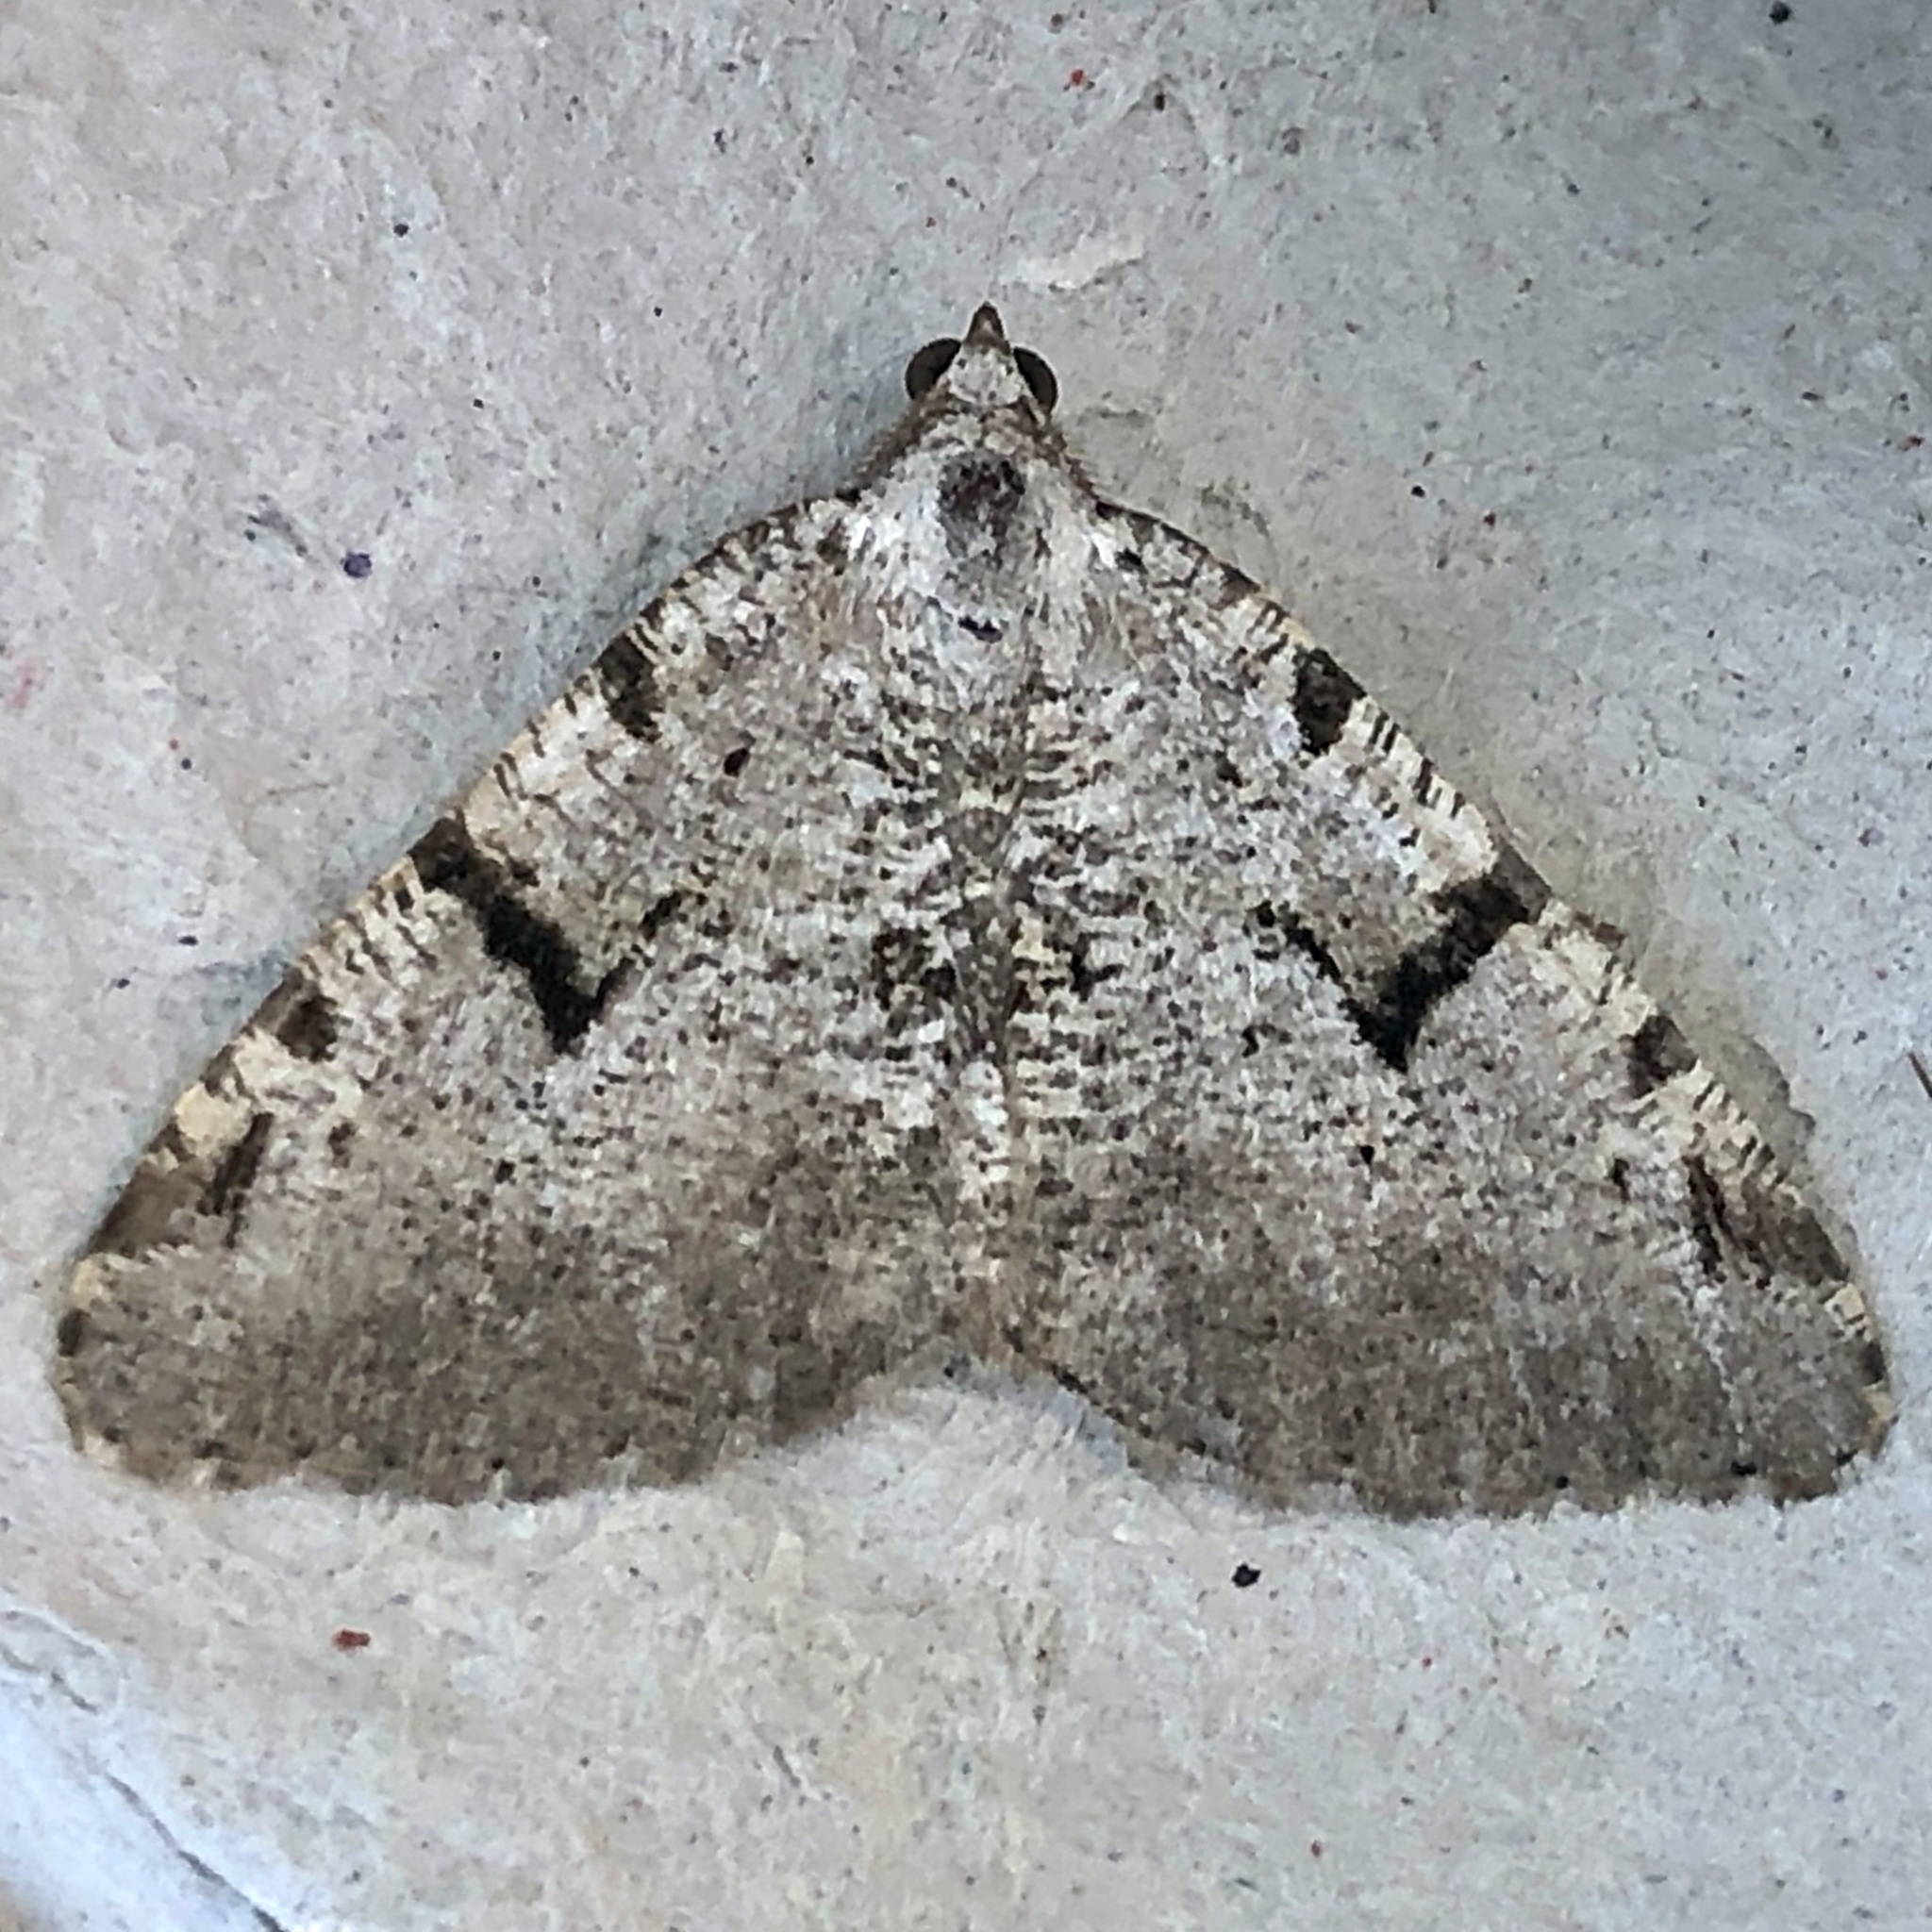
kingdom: Animalia
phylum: Arthropoda
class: Insecta
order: Lepidoptera
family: Geometridae
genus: Macaria
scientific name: Macaria wauaria
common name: V-moth
